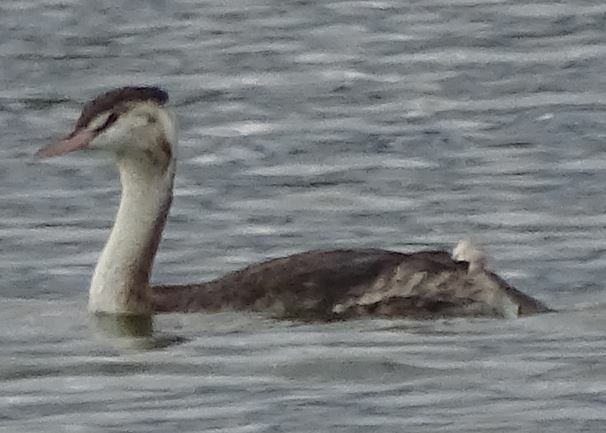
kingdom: Animalia
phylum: Chordata
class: Aves
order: Podicipediformes
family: Podicipedidae
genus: Podiceps
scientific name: Podiceps cristatus
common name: Great crested grebe
